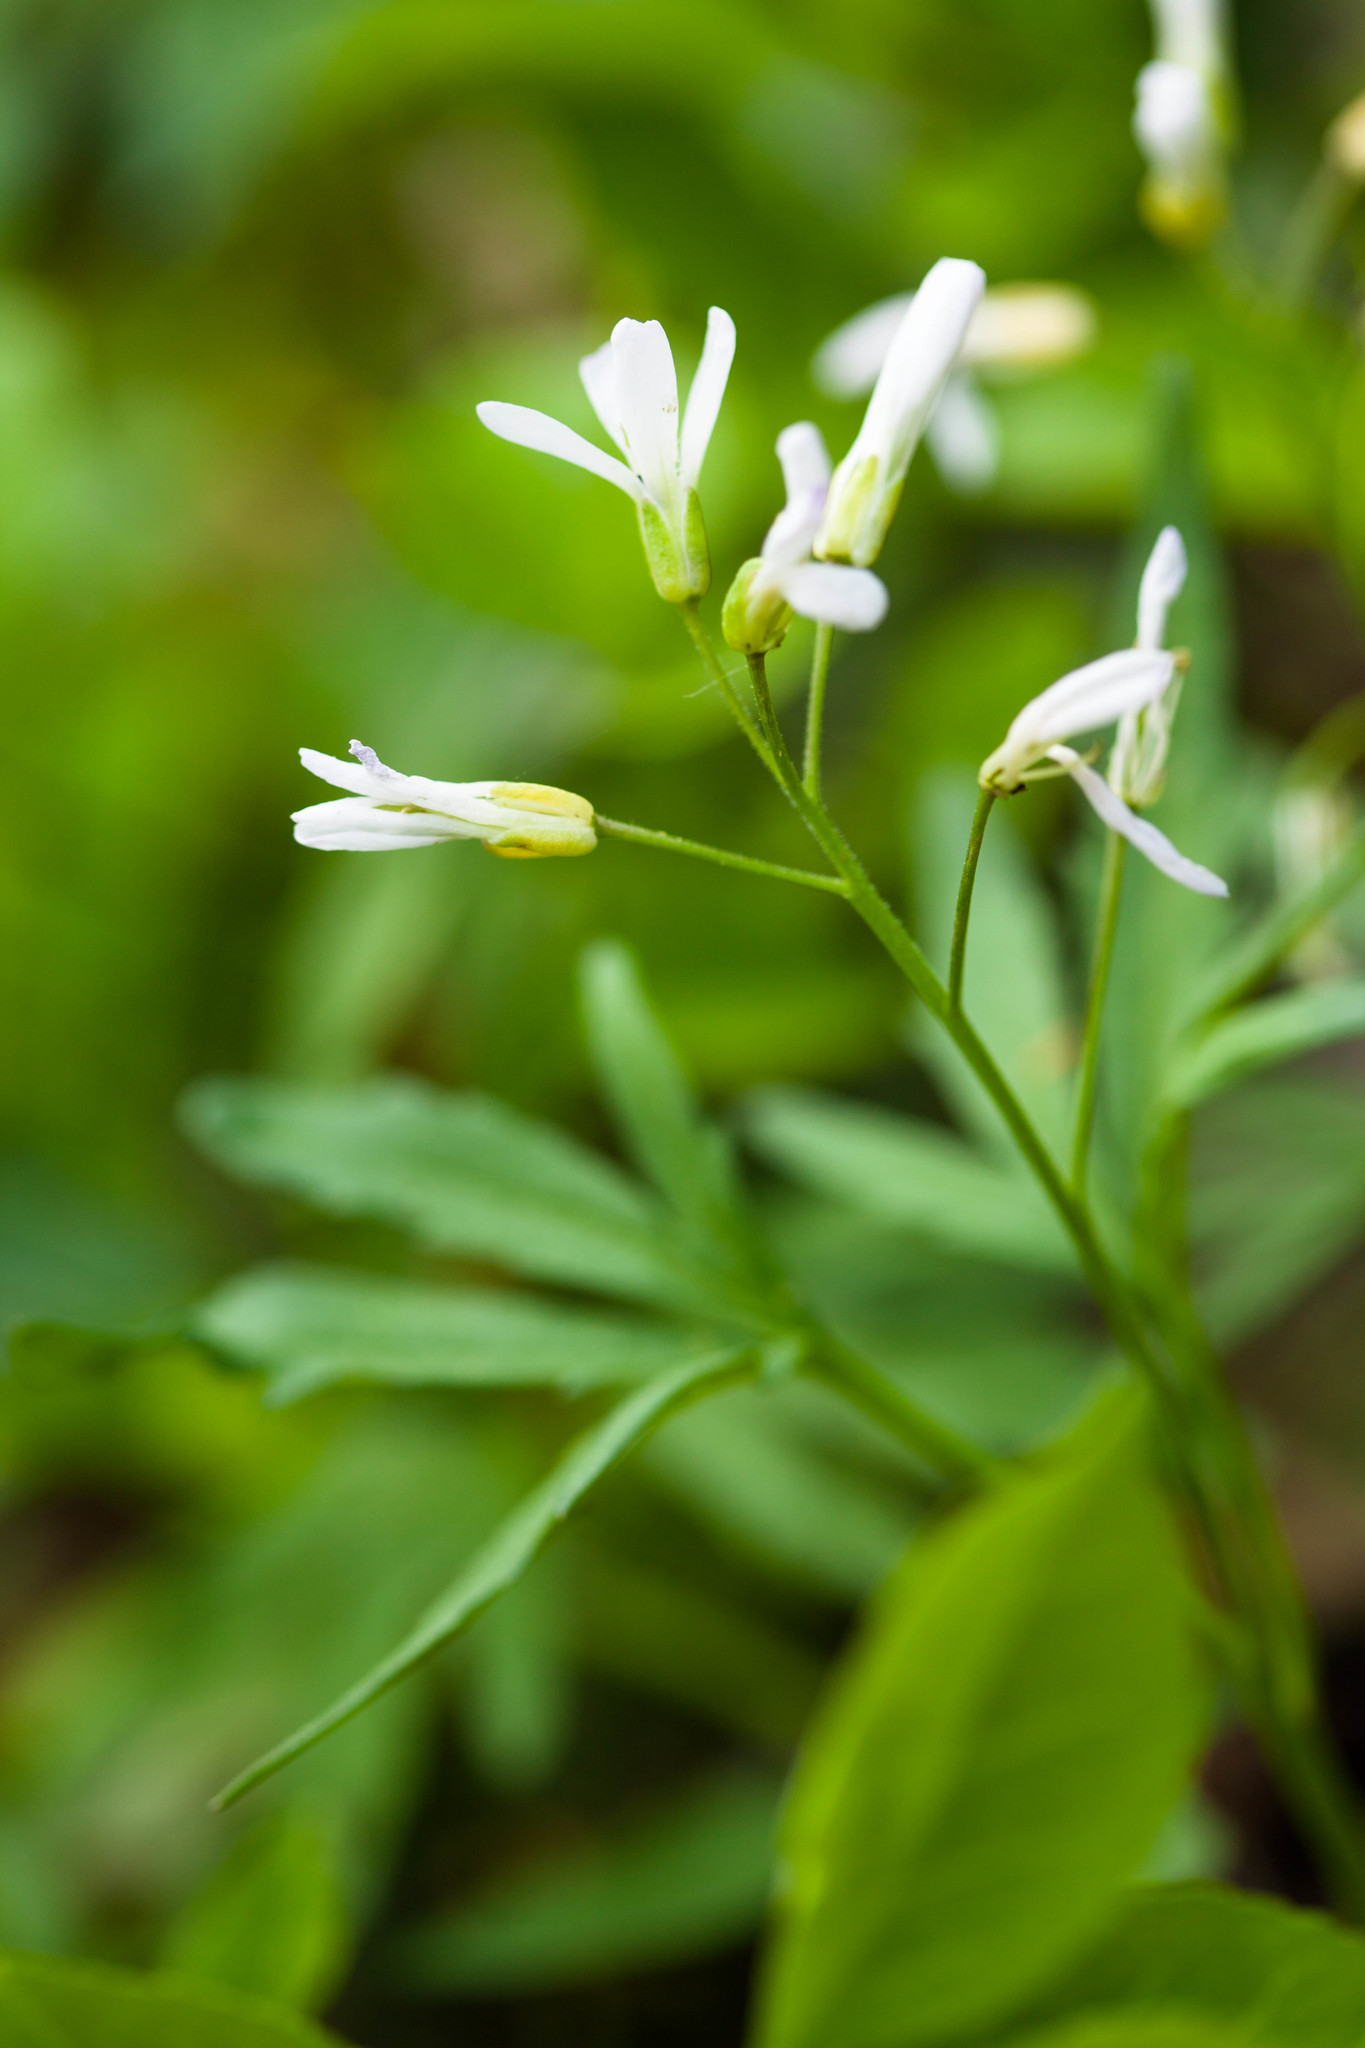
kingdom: Plantae
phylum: Tracheophyta
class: Magnoliopsida
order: Brassicales
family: Brassicaceae
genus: Cardamine
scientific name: Cardamine concatenata
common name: Cut-leaf toothcup
